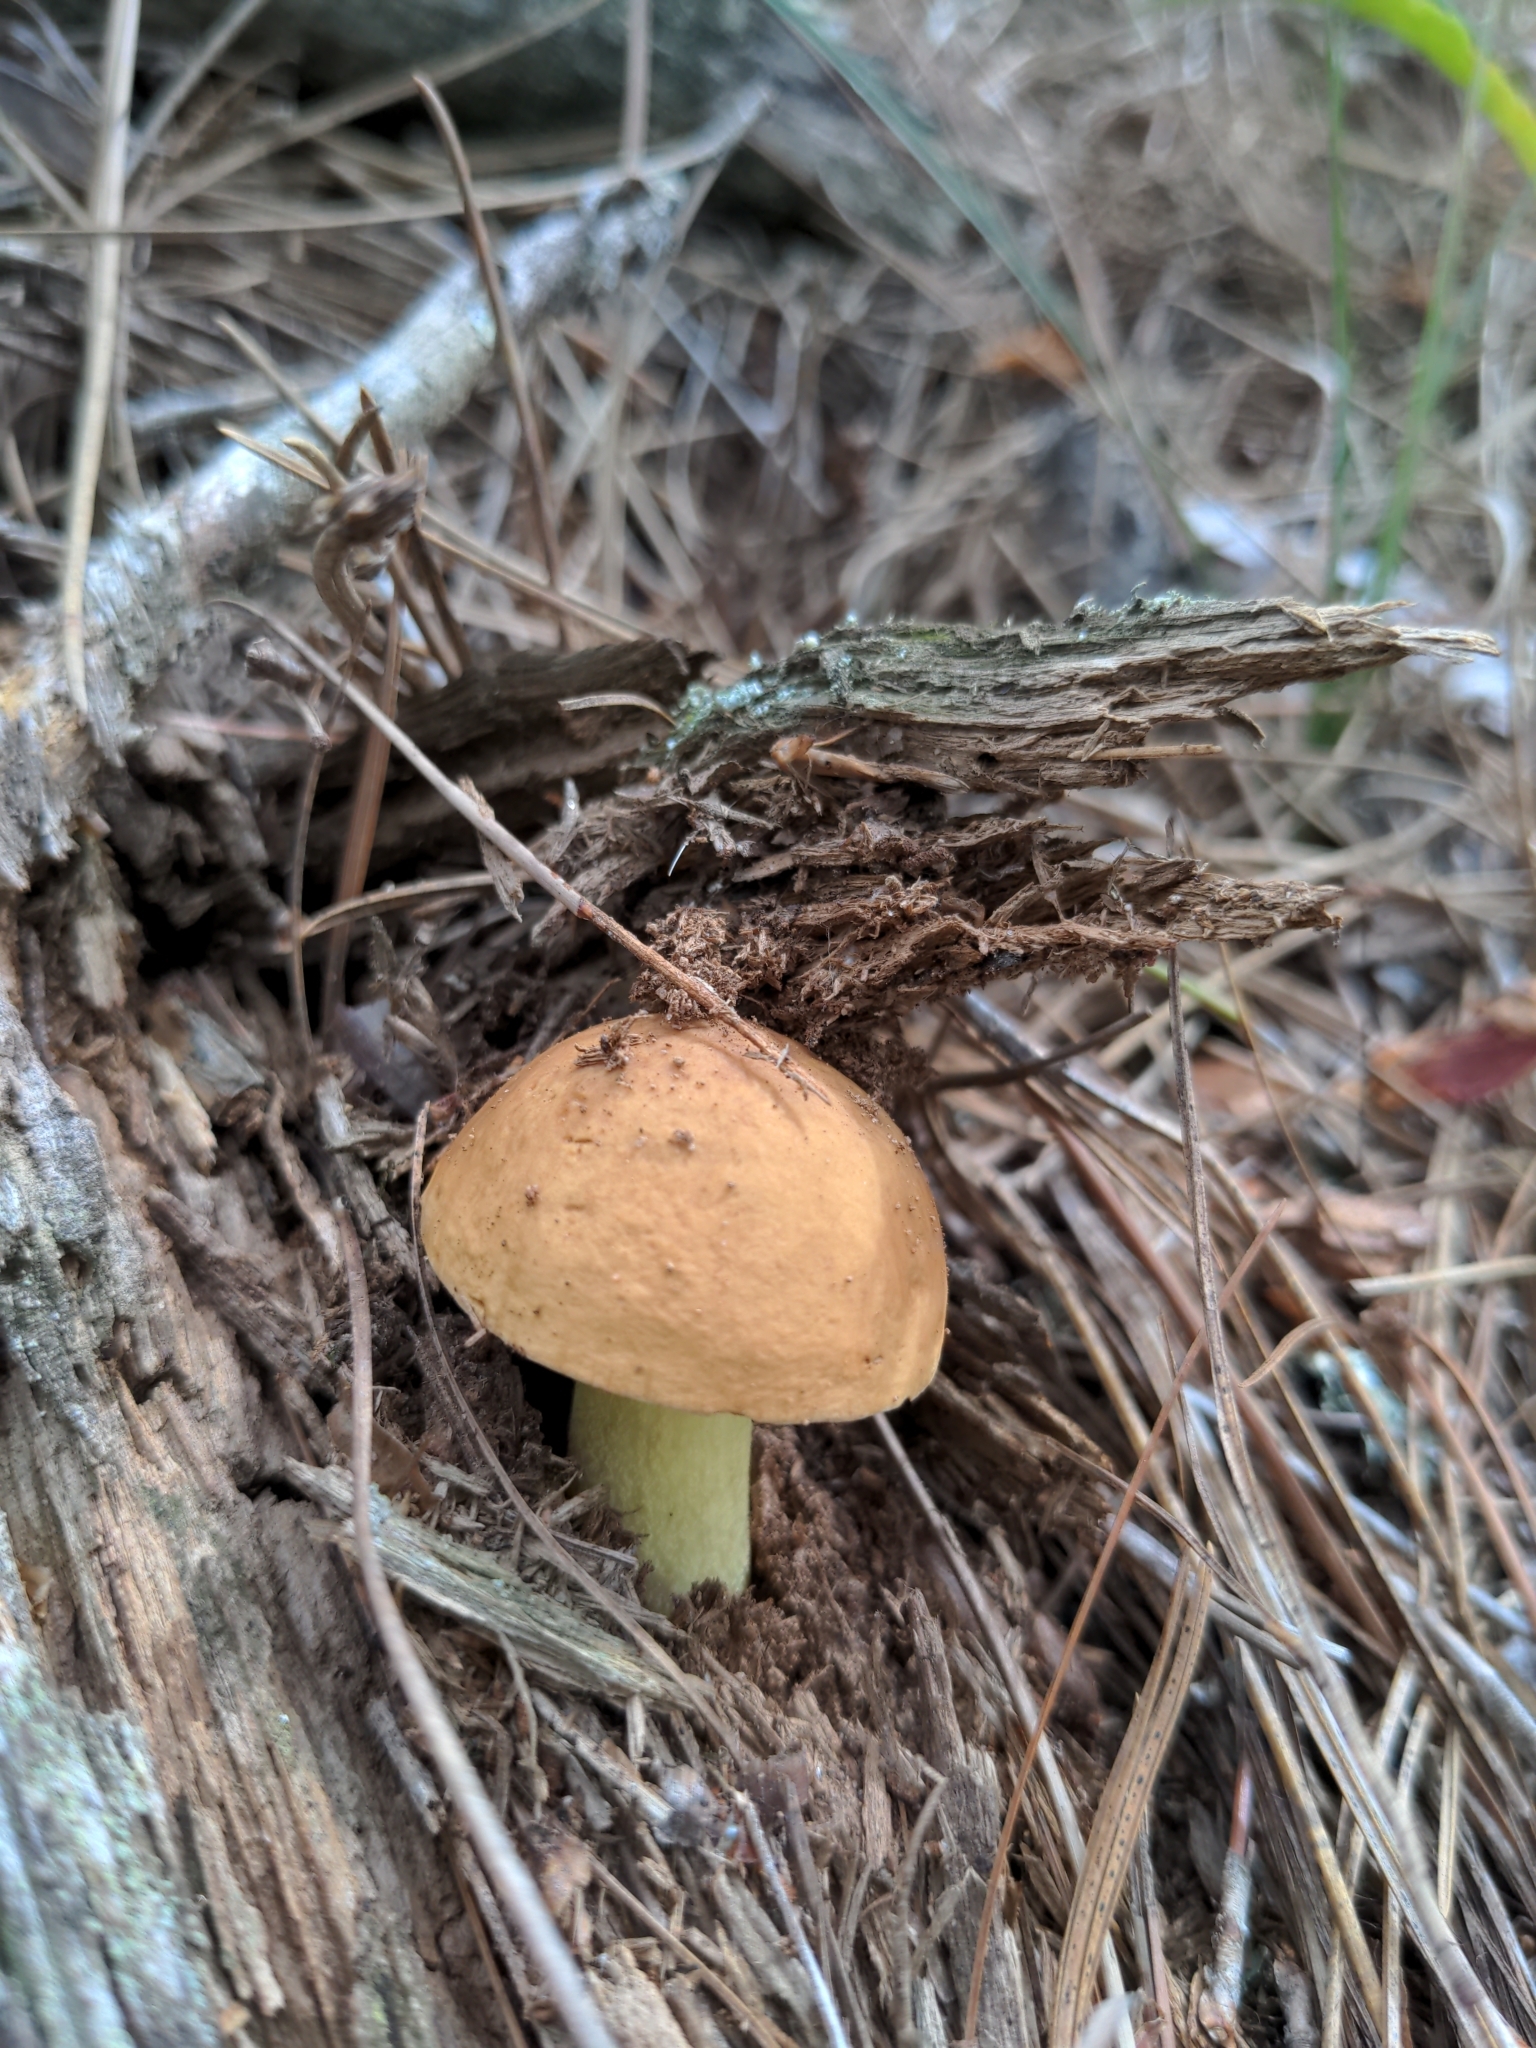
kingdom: Fungi
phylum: Basidiomycota
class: Agaricomycetes
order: Boletales
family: Boletaceae
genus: Hemileccinum
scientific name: Hemileccinum subglabripes
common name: Smoothish-stemmed bolete
